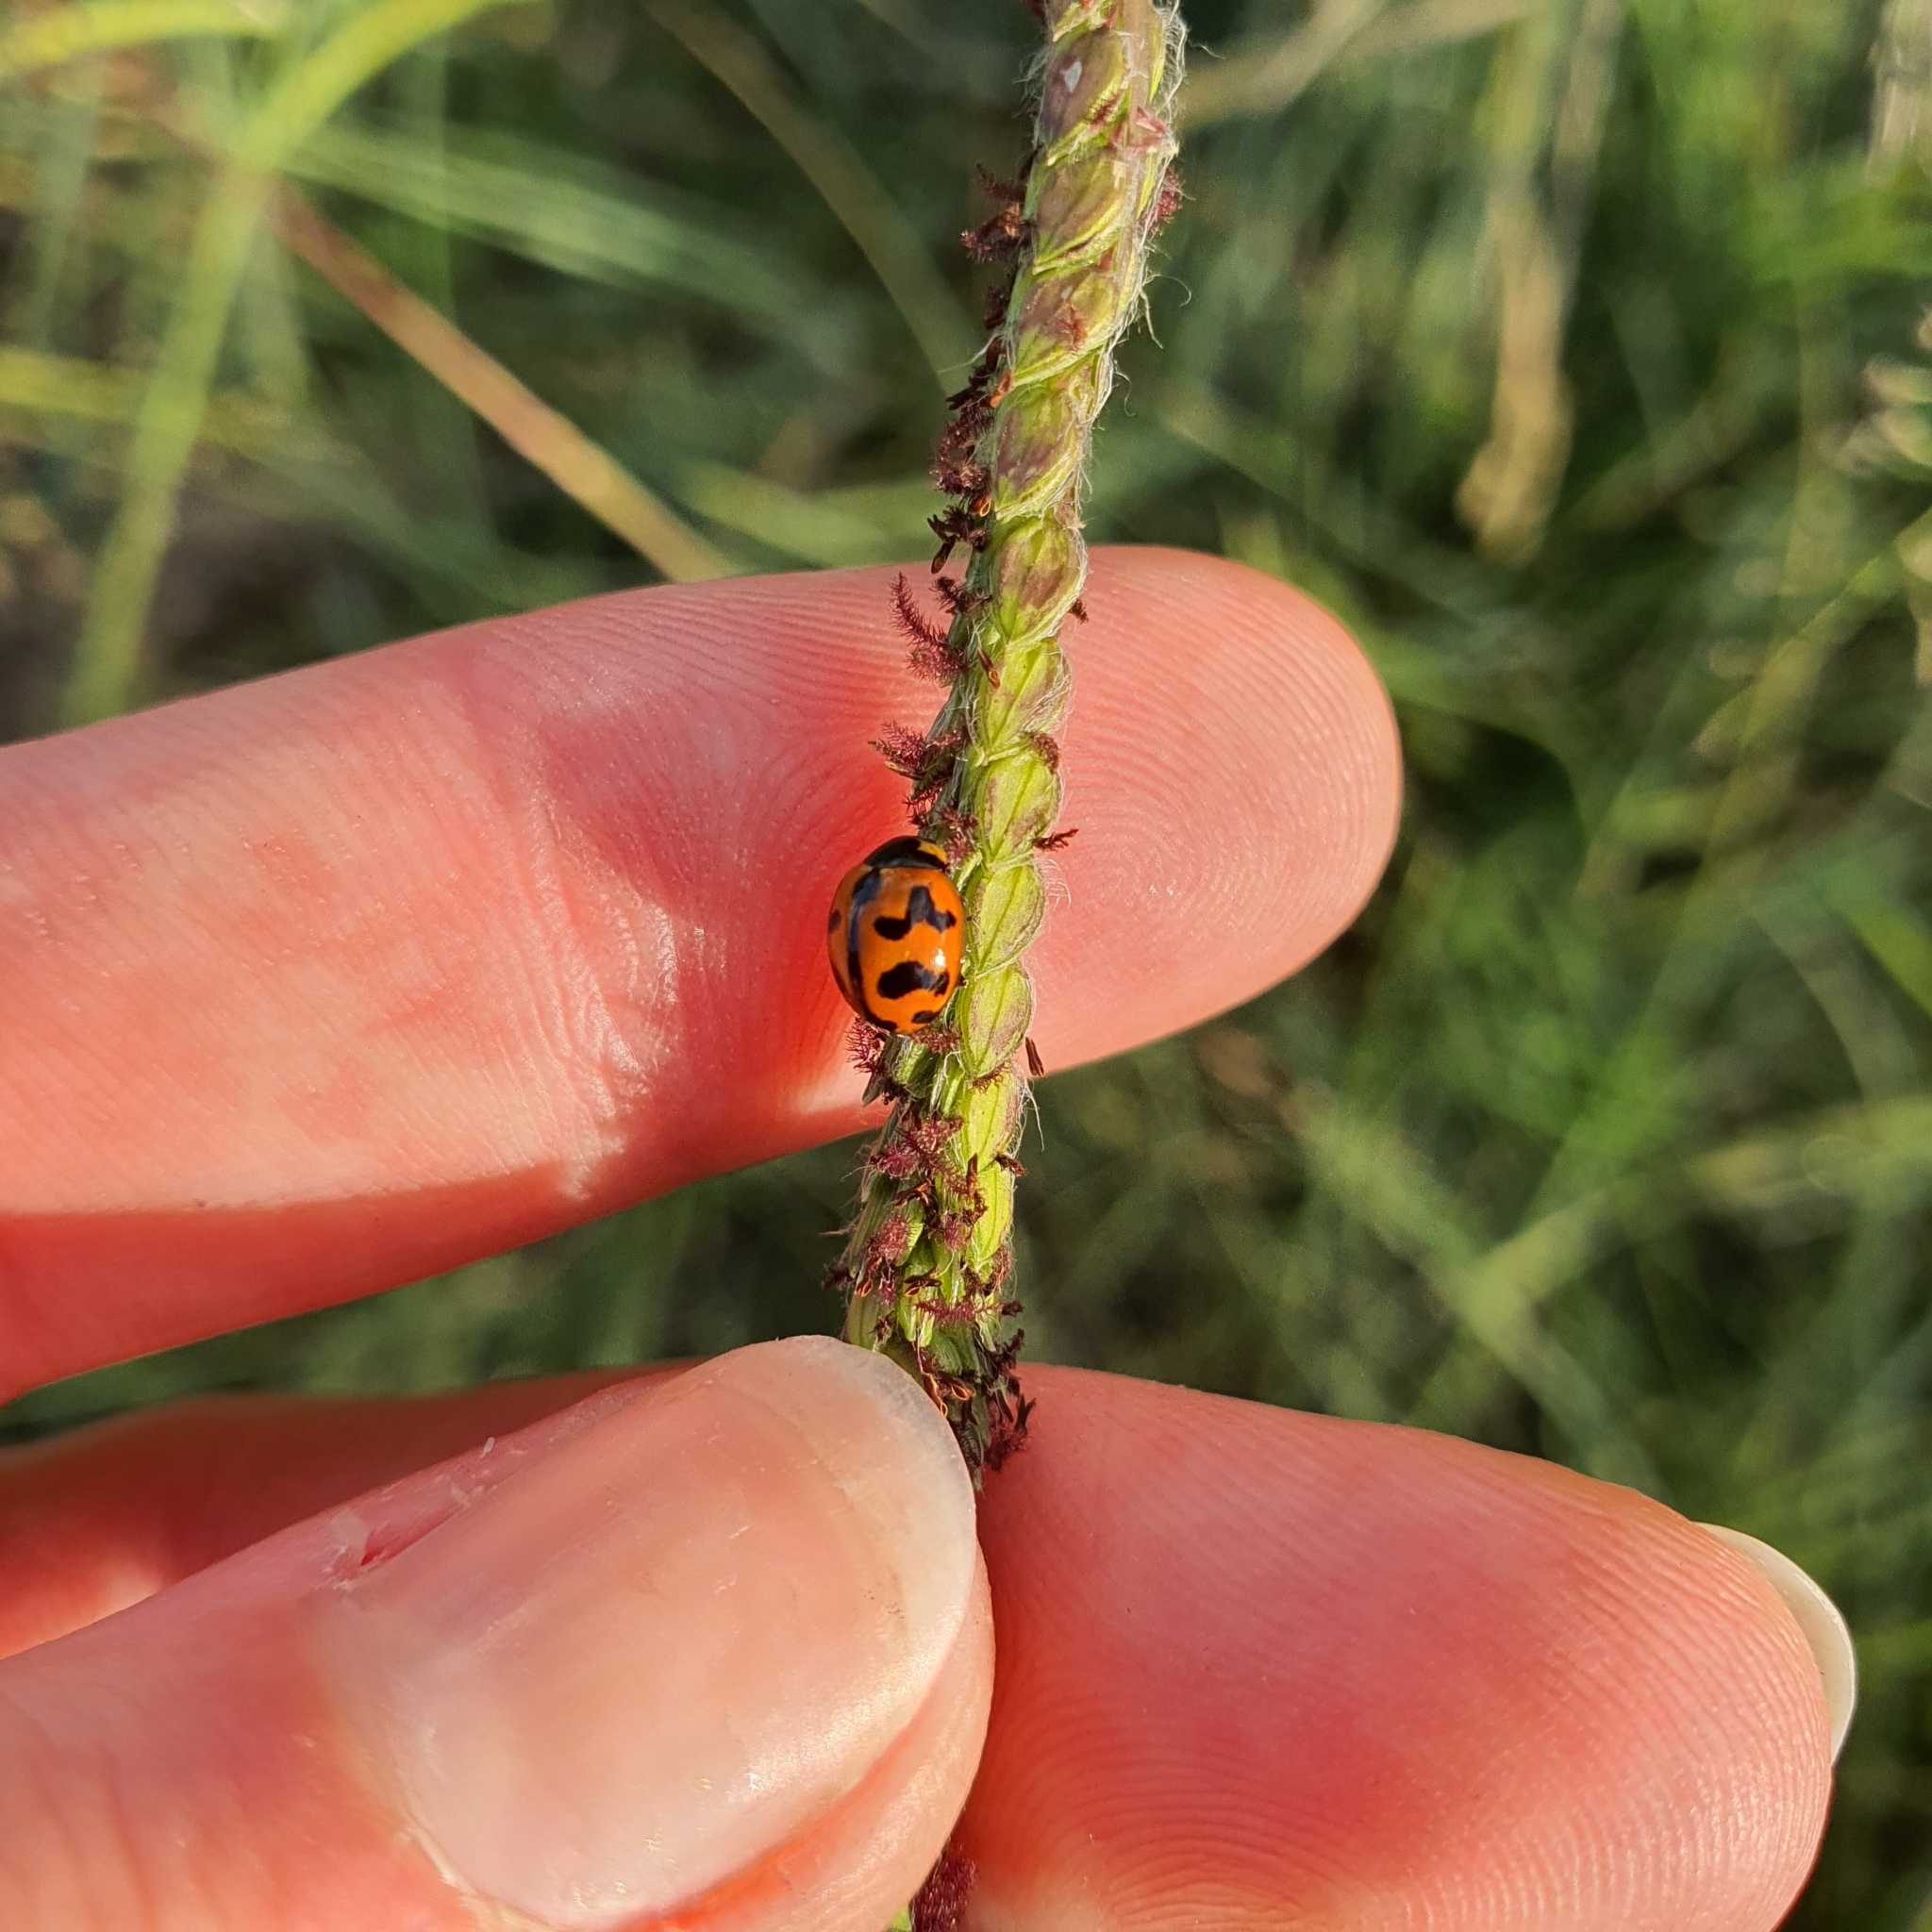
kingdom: Animalia
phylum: Arthropoda
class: Insecta
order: Coleoptera
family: Coccinellidae
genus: Coccinella
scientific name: Coccinella transversalis
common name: Transverse lady beetle
